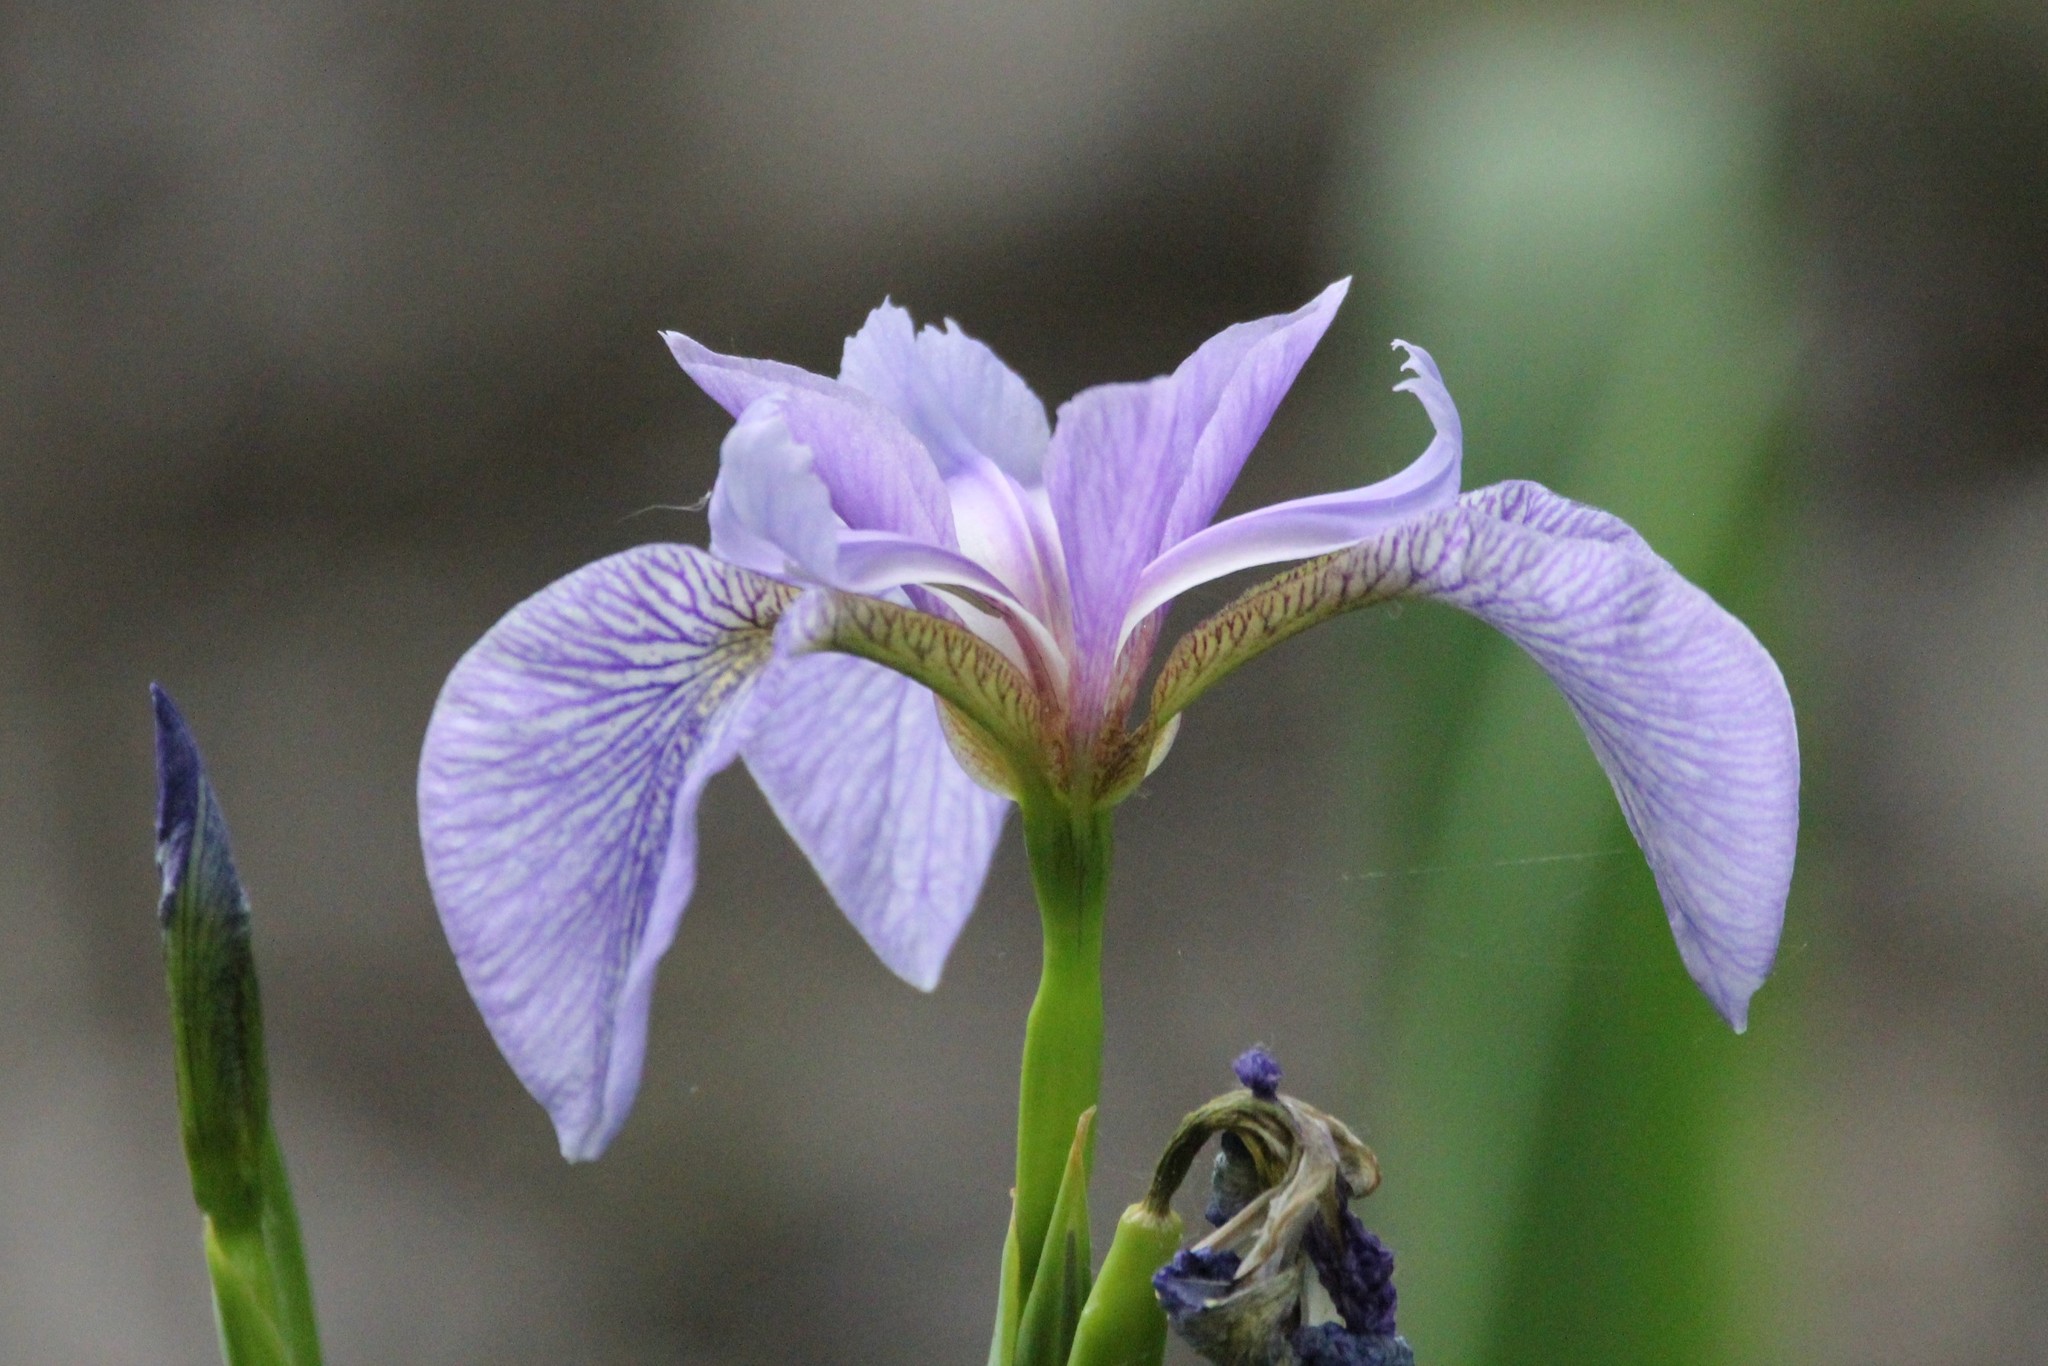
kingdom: Plantae
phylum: Tracheophyta
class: Liliopsida
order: Asparagales
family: Iridaceae
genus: Iris
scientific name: Iris versicolor
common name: Purple iris
